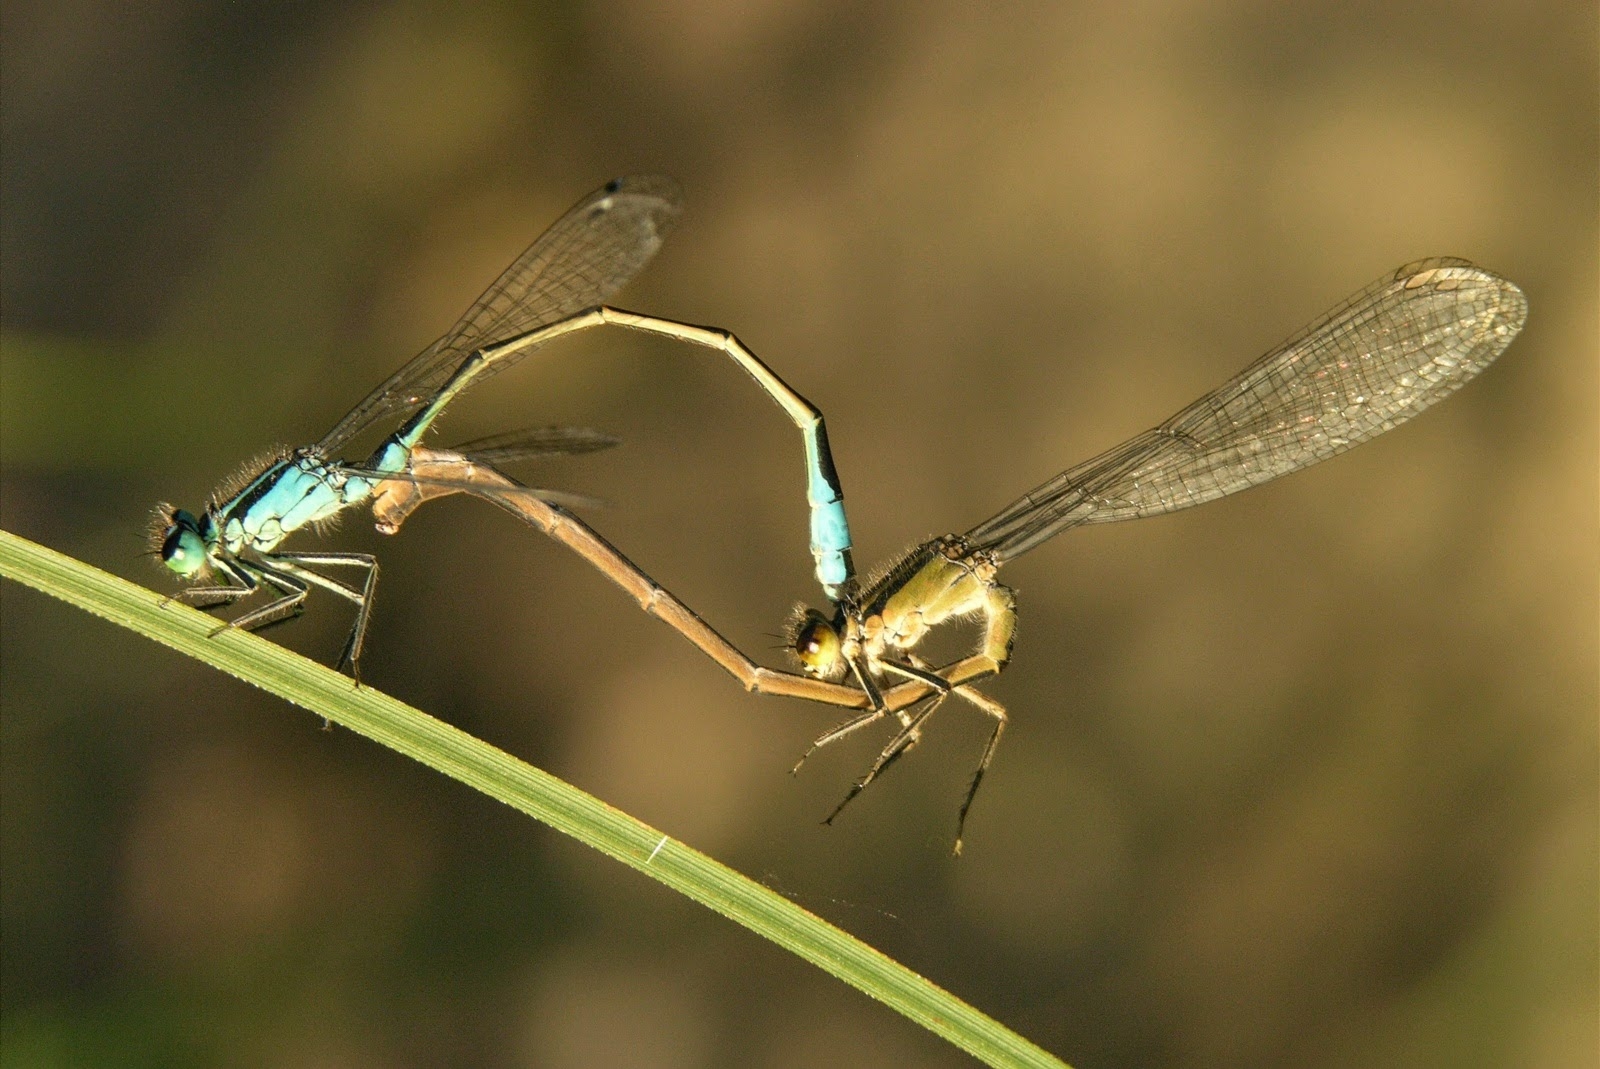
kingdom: Animalia
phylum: Arthropoda
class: Insecta
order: Odonata
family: Coenagrionidae
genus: Ischnura
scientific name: Ischnura elegans
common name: Blue-tailed damselfly
